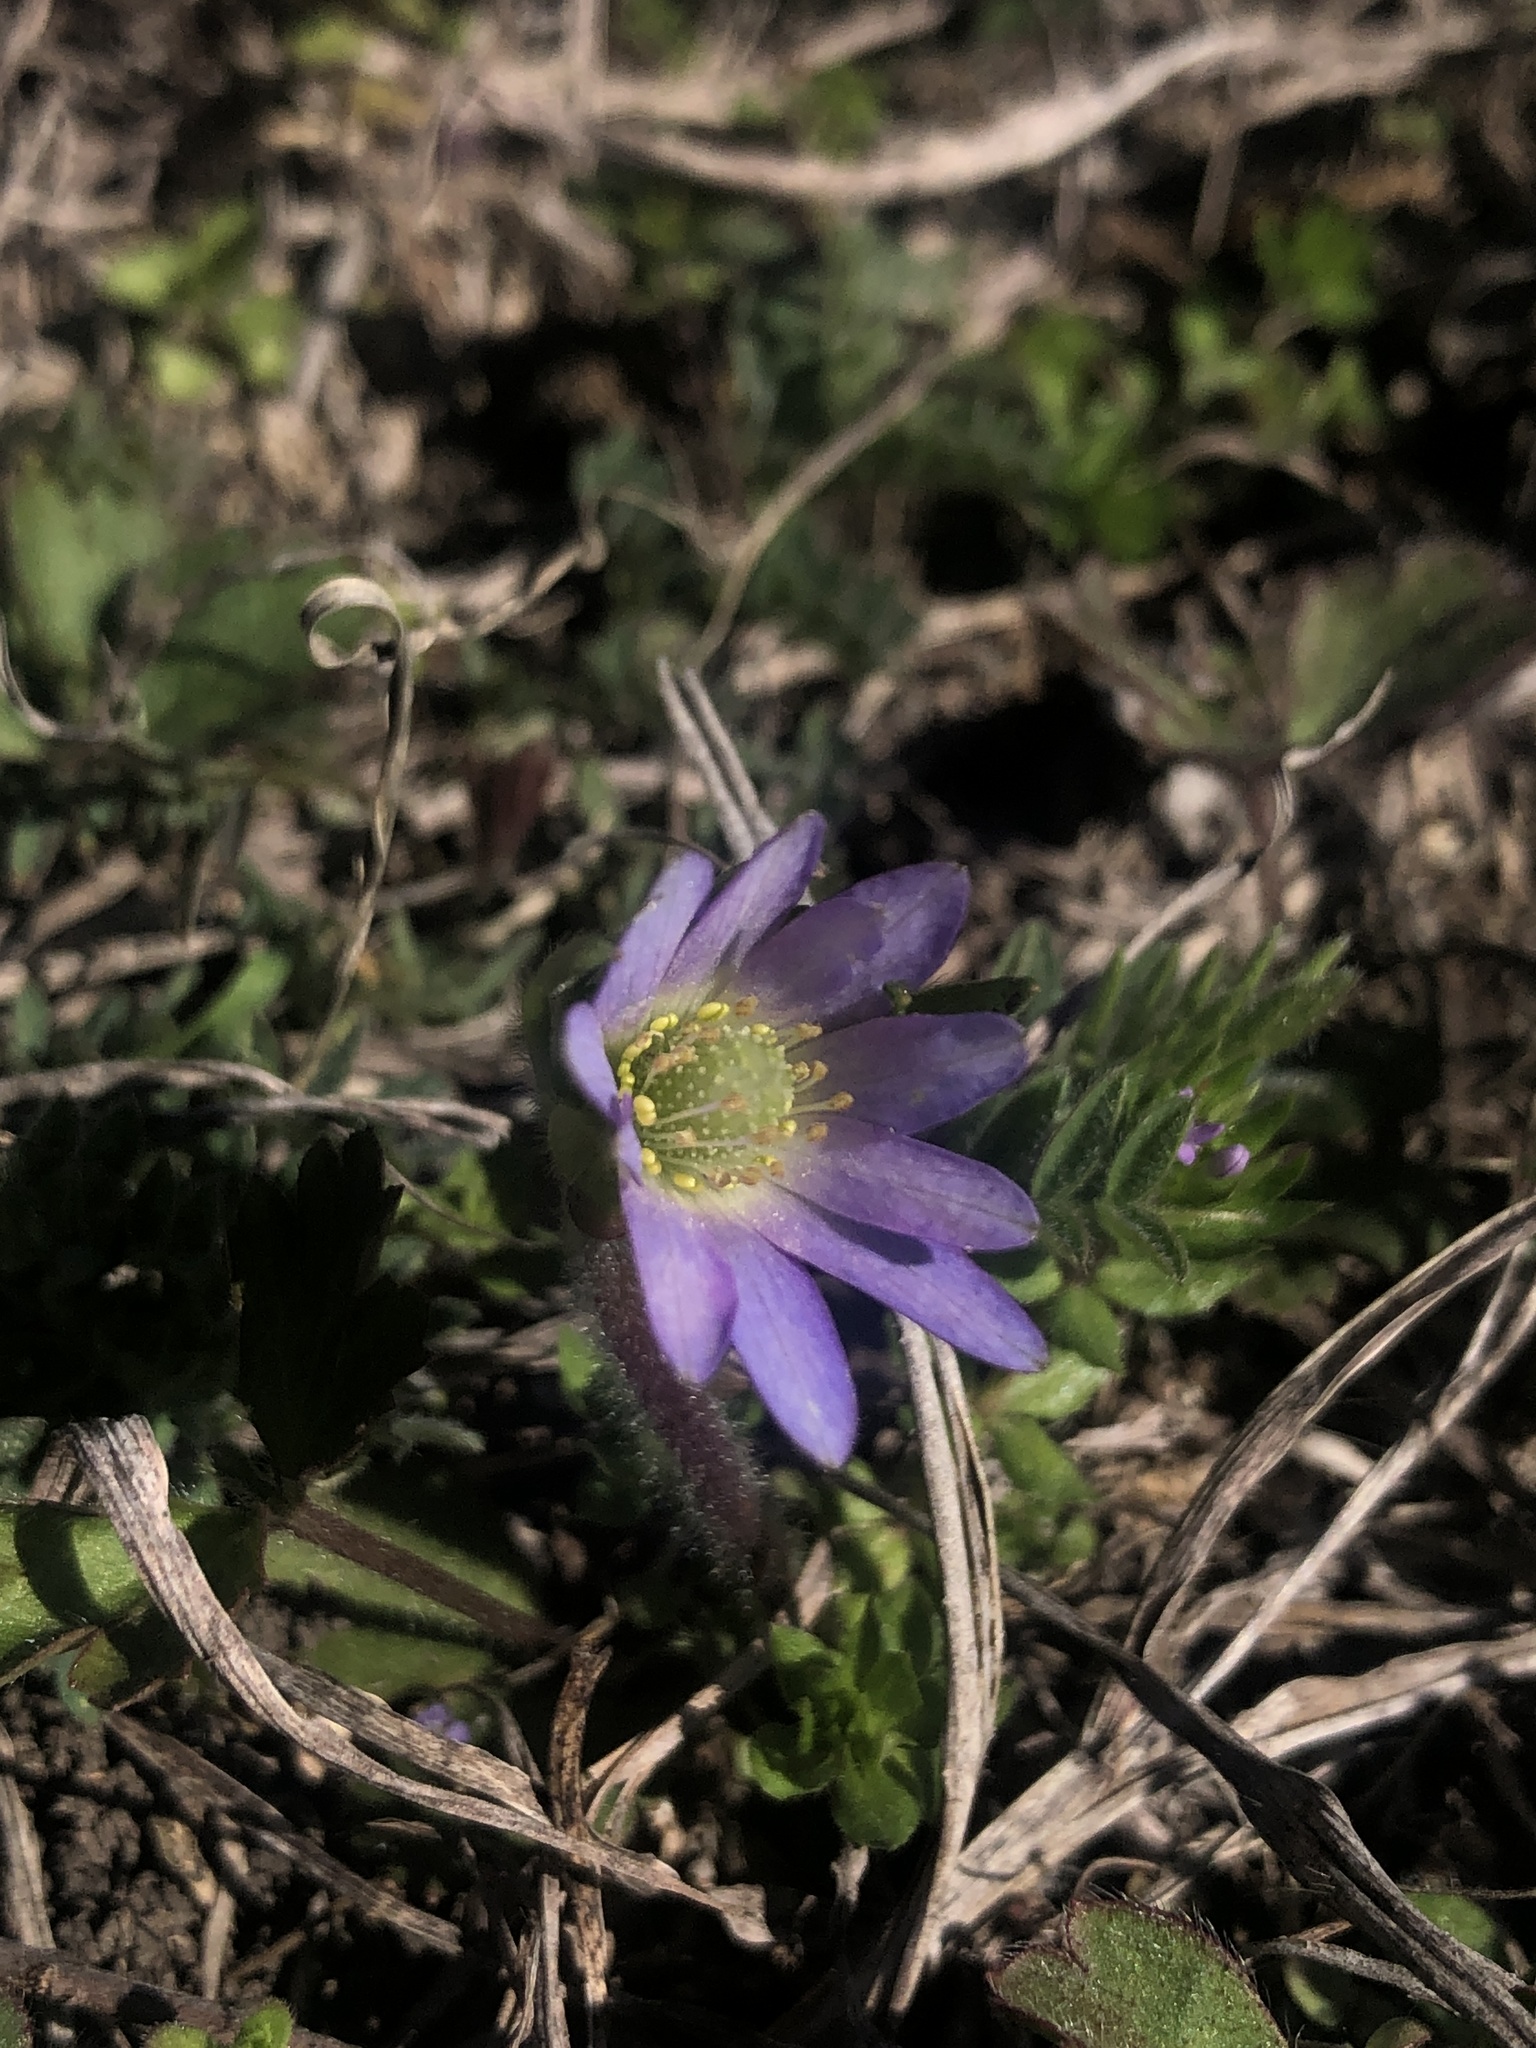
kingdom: Plantae
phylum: Tracheophyta
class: Magnoliopsida
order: Ranunculales
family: Ranunculaceae
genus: Anemone
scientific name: Anemone berlandieri
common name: Ten-petal anemone
